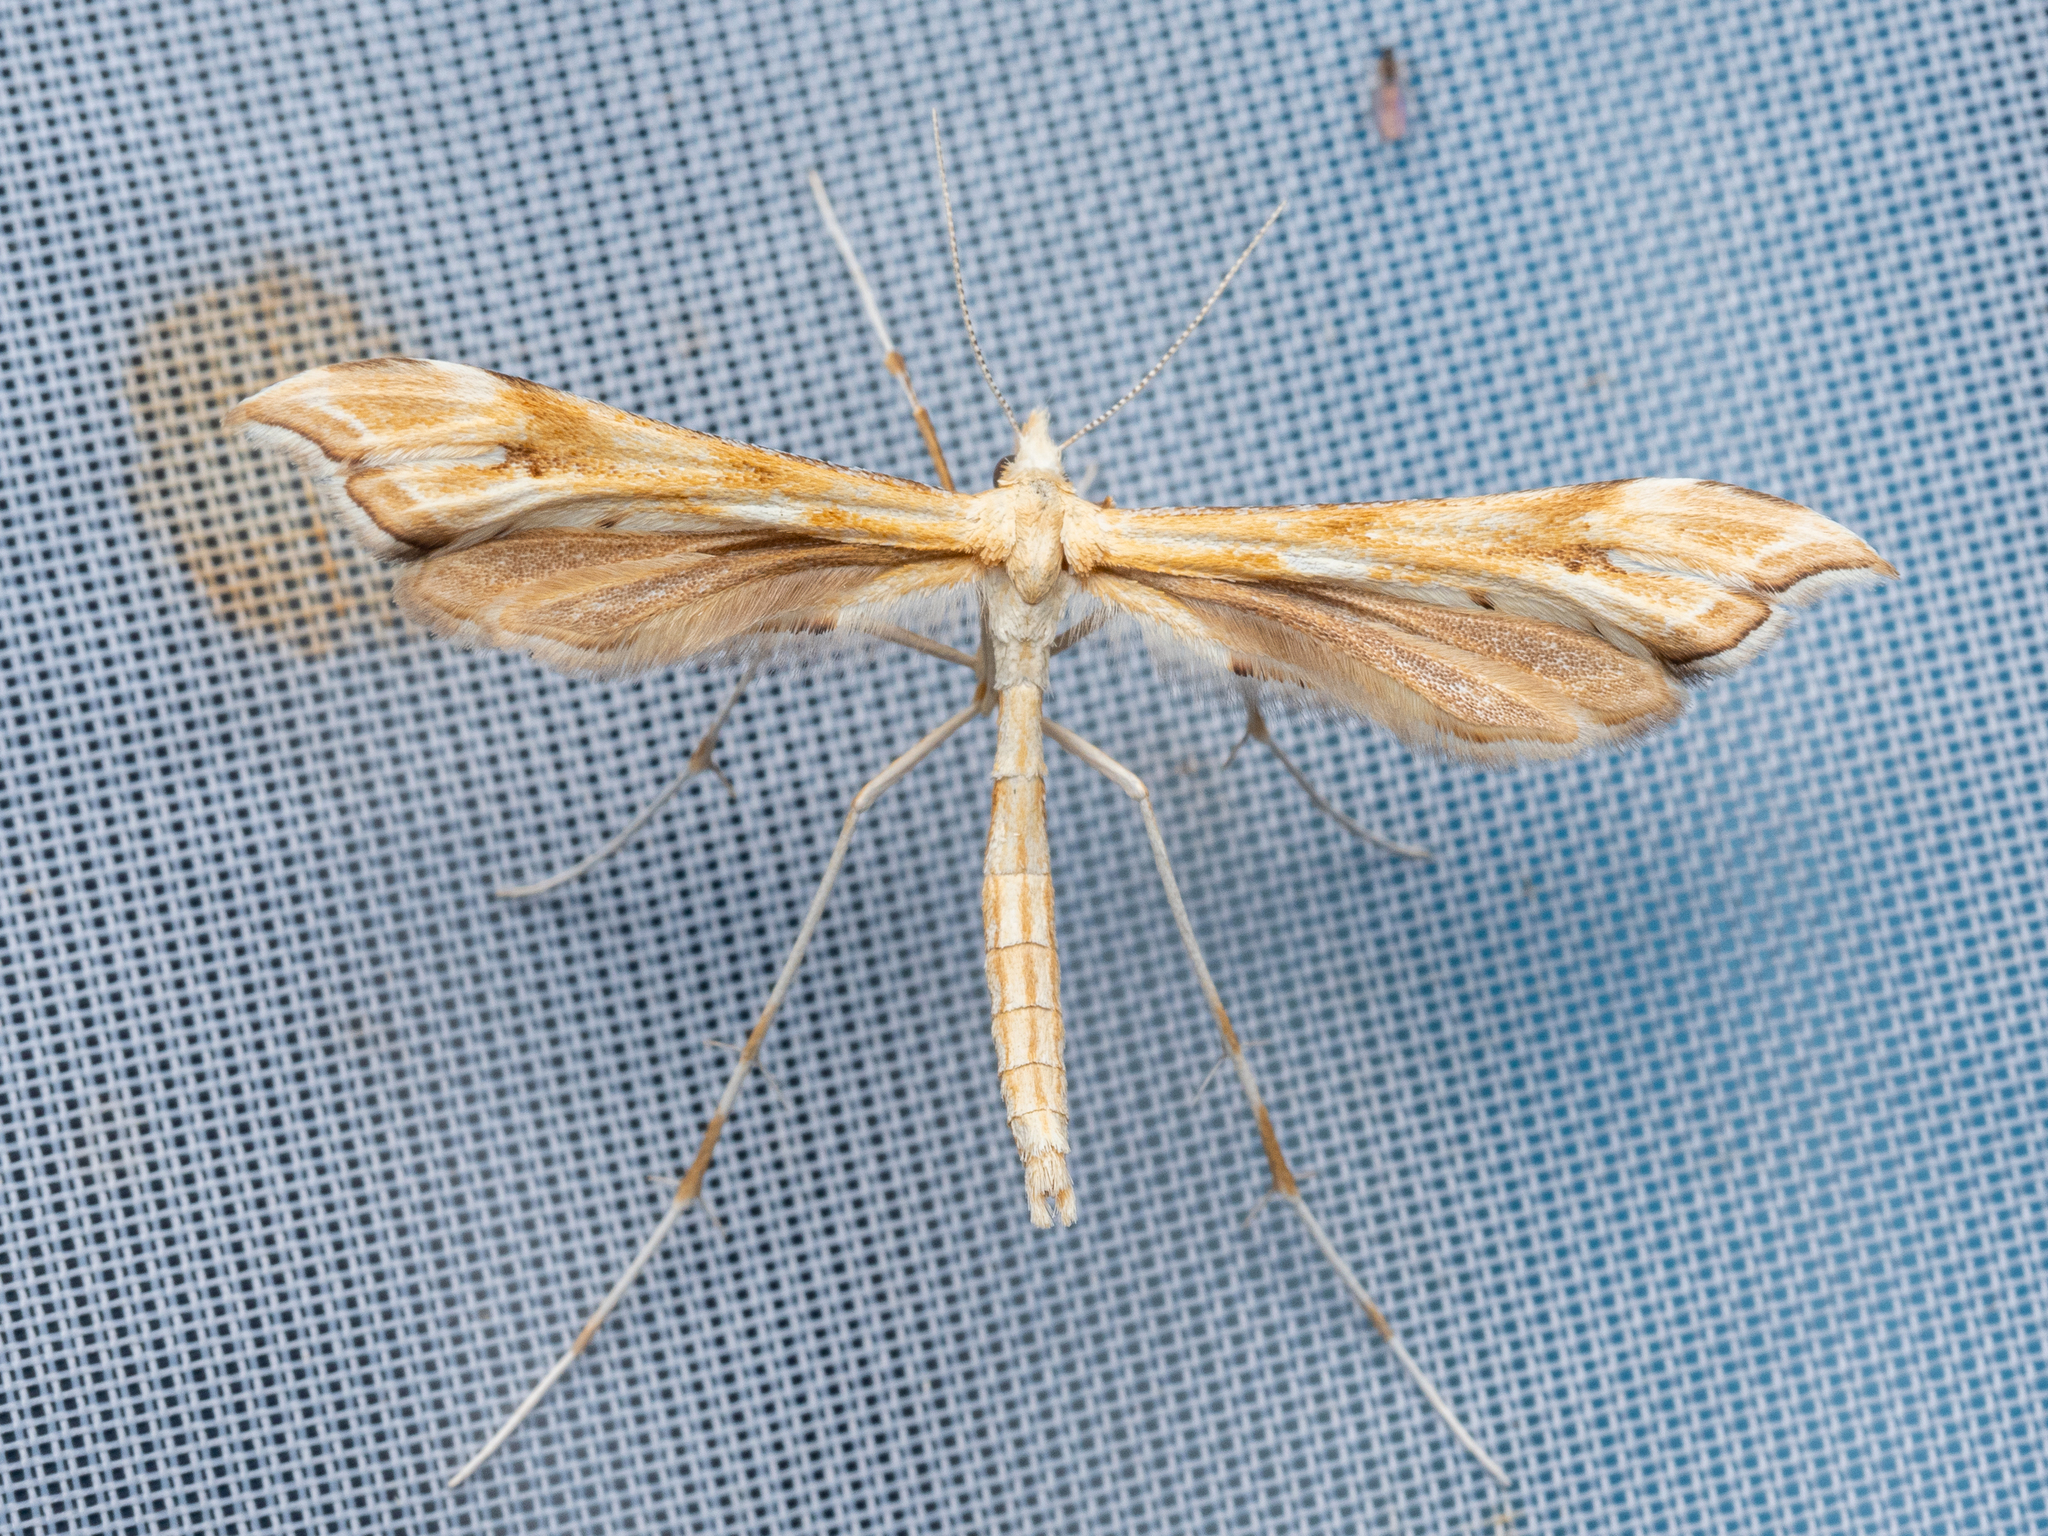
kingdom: Animalia
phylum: Arthropoda
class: Insecta
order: Lepidoptera
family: Pterophoridae
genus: Gillmeria
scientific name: Gillmeria ochrodactyla
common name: Tansy plume
